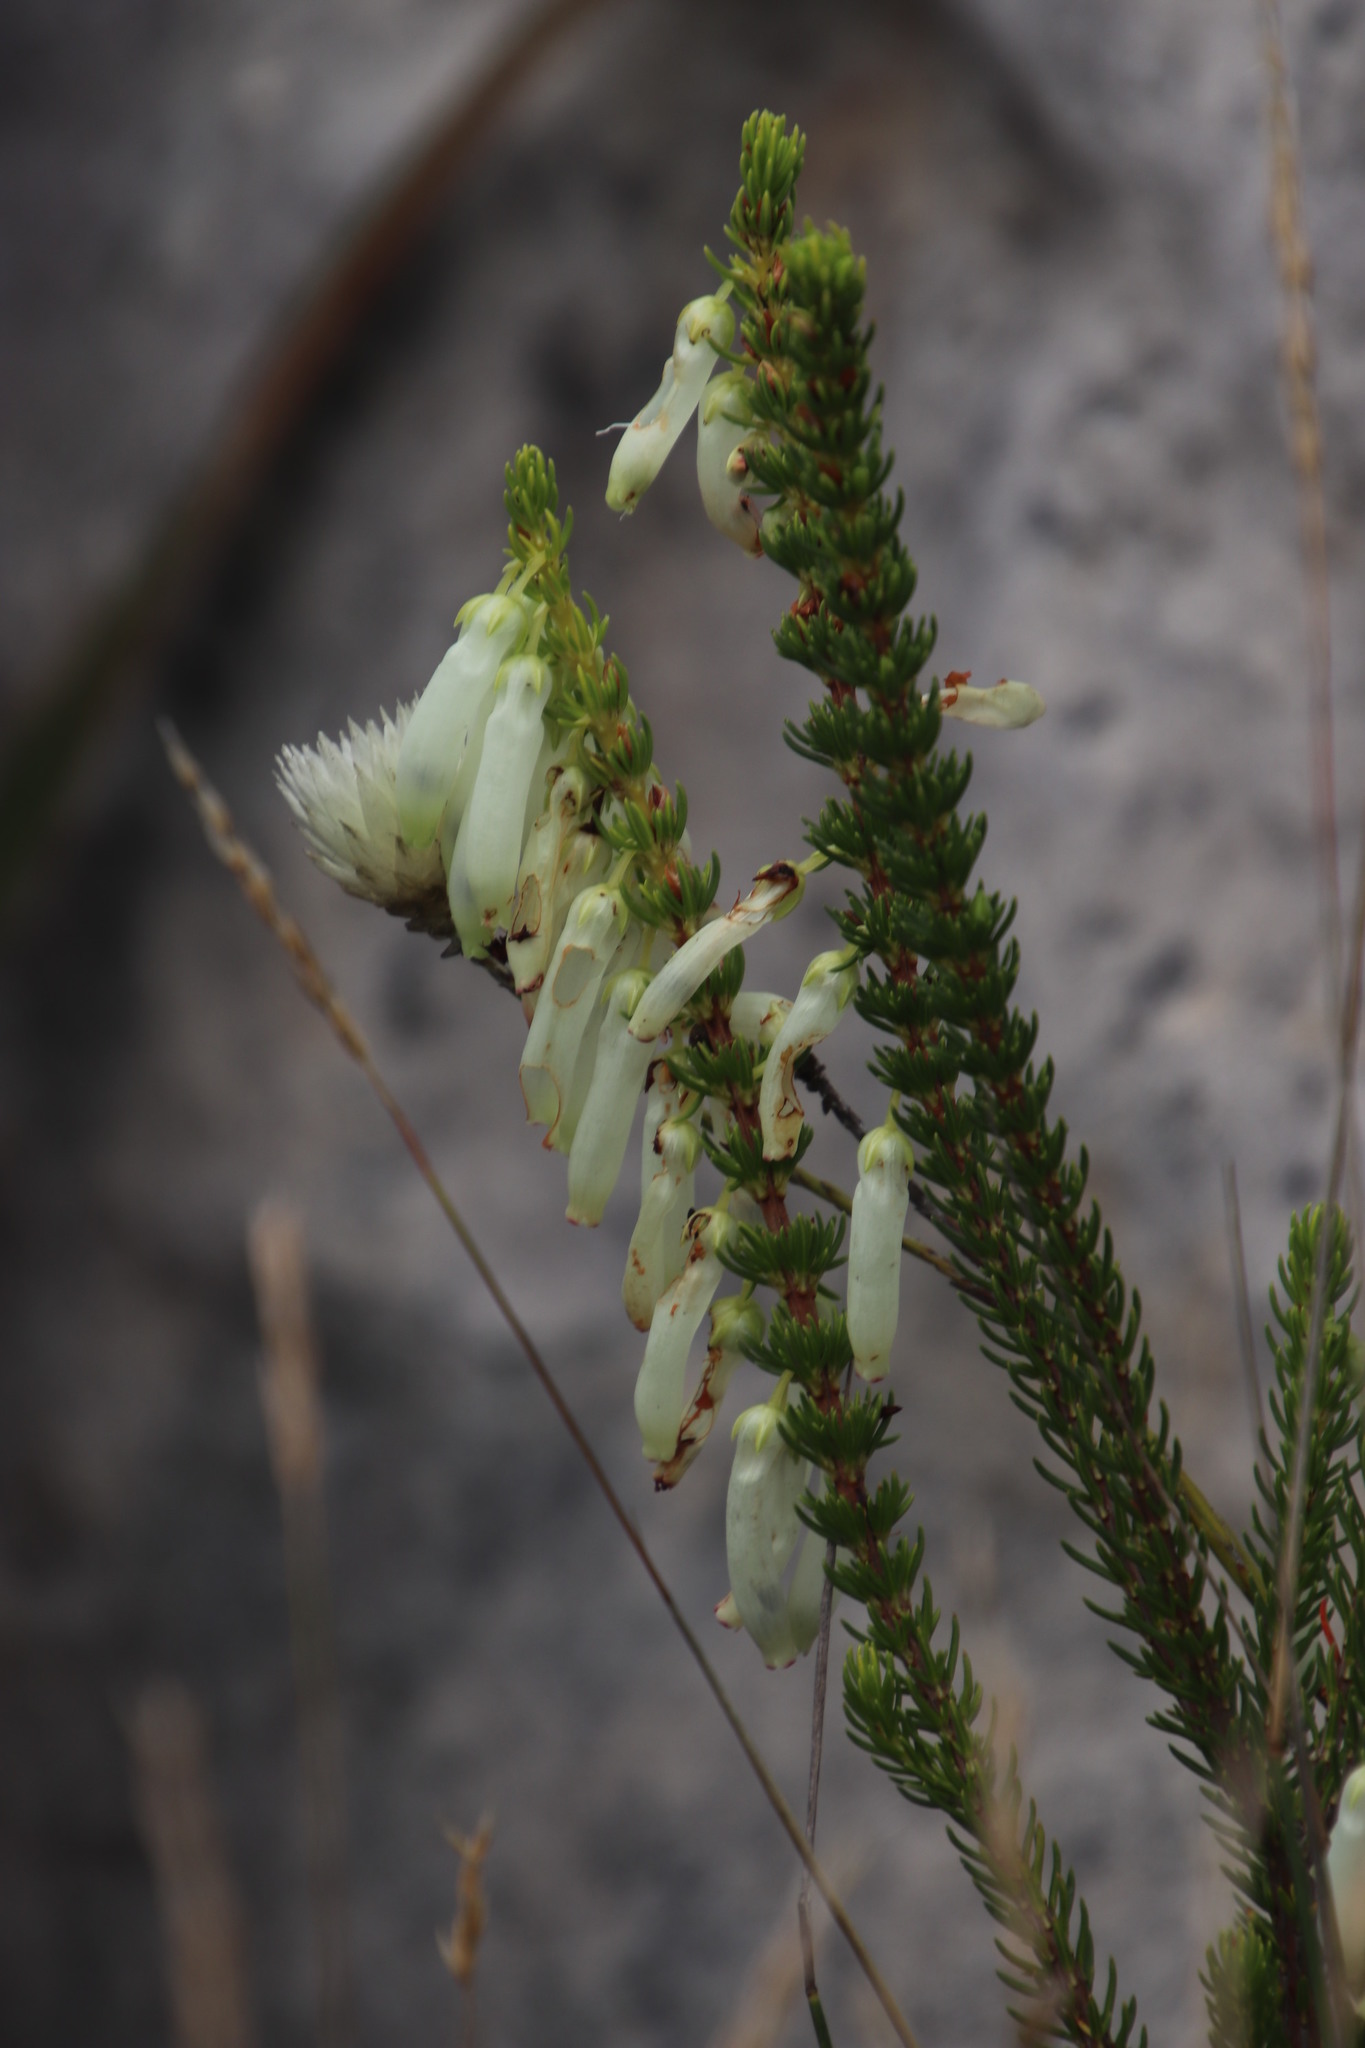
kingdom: Plantae
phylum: Tracheophyta
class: Magnoliopsida
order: Ericales
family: Ericaceae
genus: Erica
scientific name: Erica mammosa
